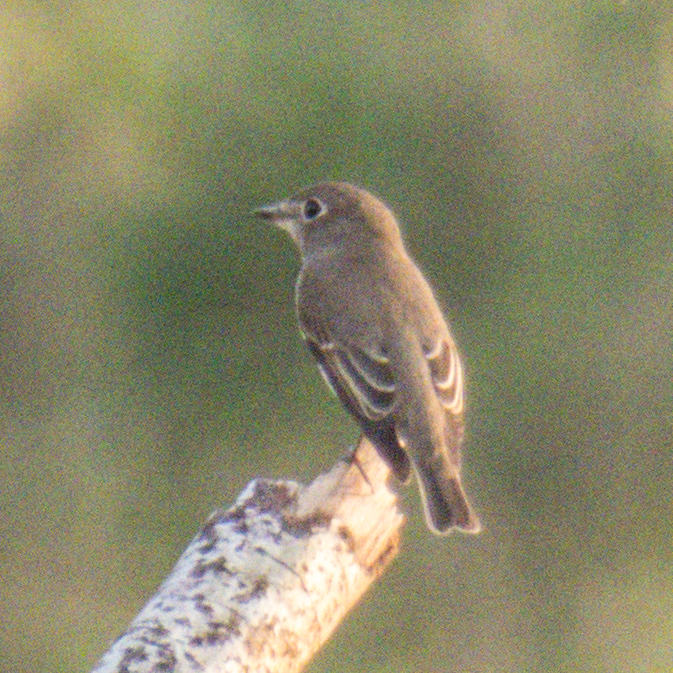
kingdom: Animalia
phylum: Chordata
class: Aves
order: Passeriformes
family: Muscicapidae
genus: Muscicapa
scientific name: Muscicapa latirostris
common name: Asian brown flycatcher
